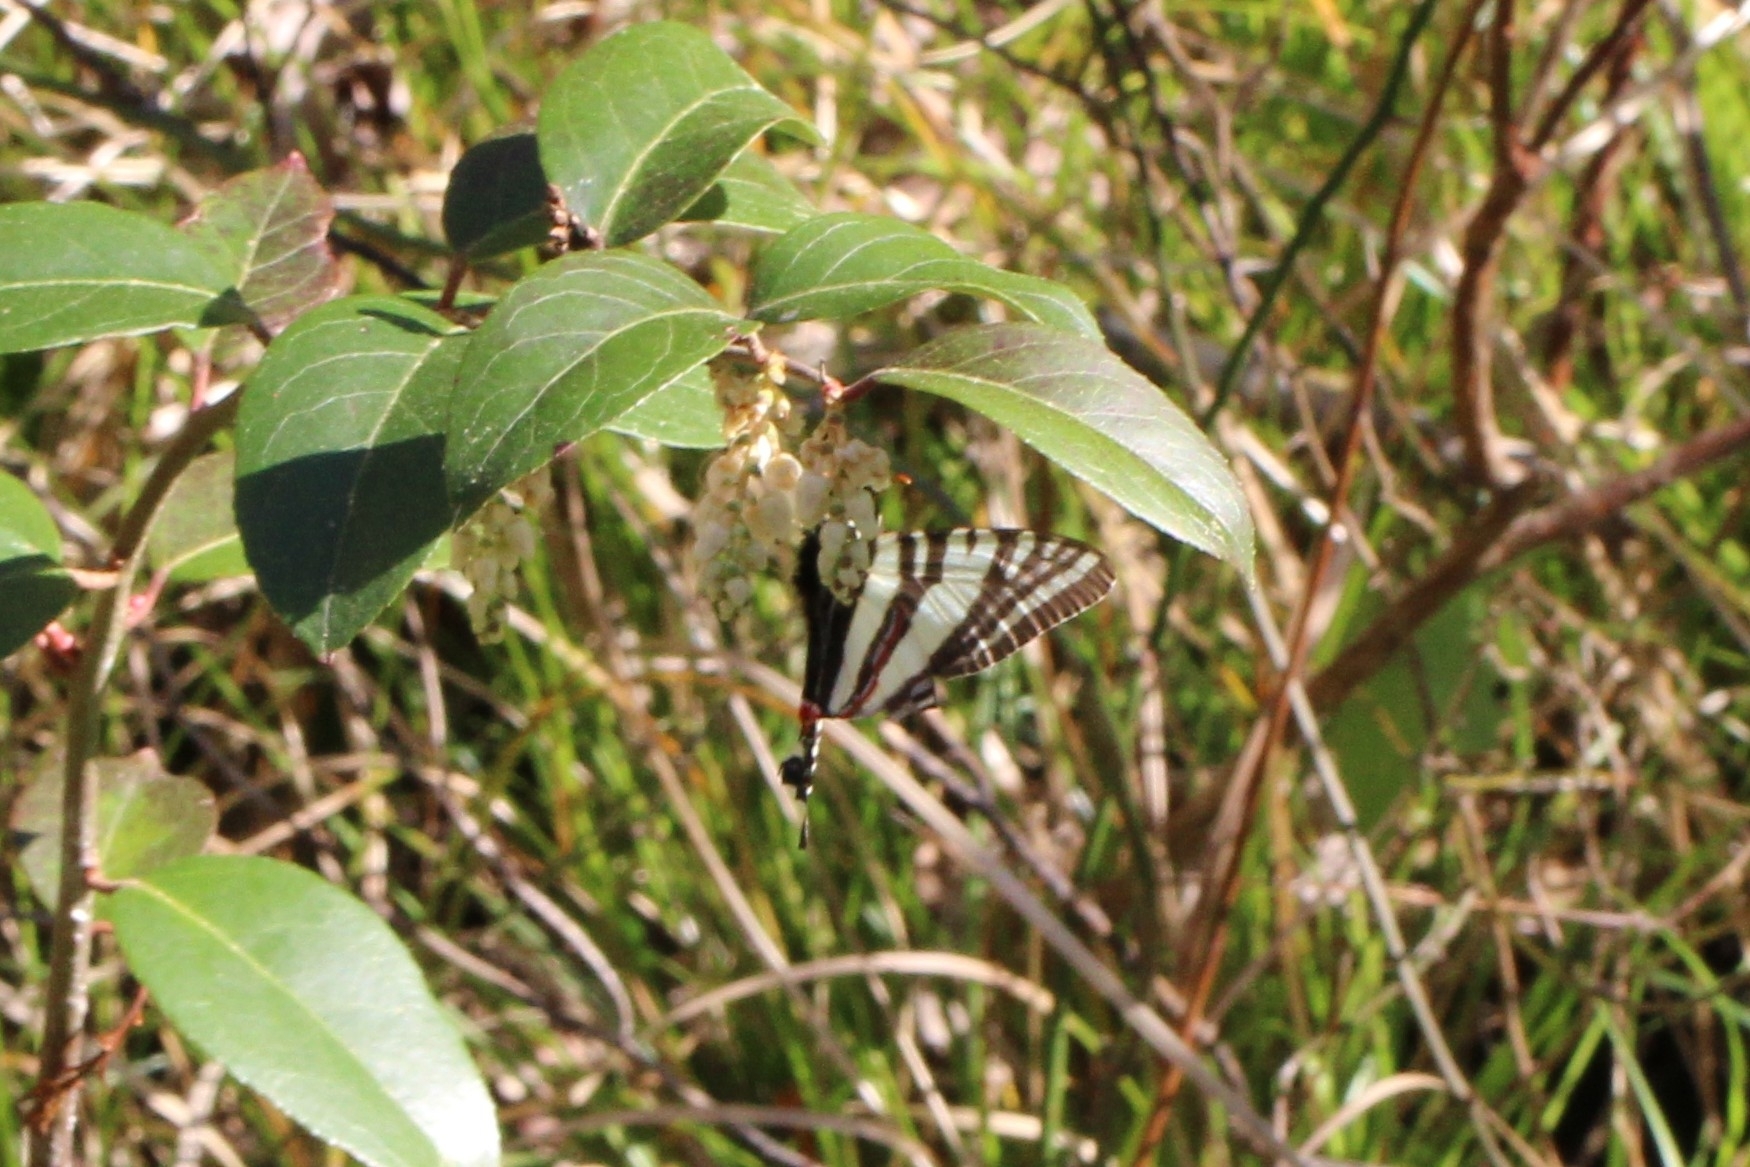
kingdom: Animalia
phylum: Arthropoda
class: Insecta
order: Lepidoptera
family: Papilionidae
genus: Protographium
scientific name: Protographium marcellus
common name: Zebra swallowtail
